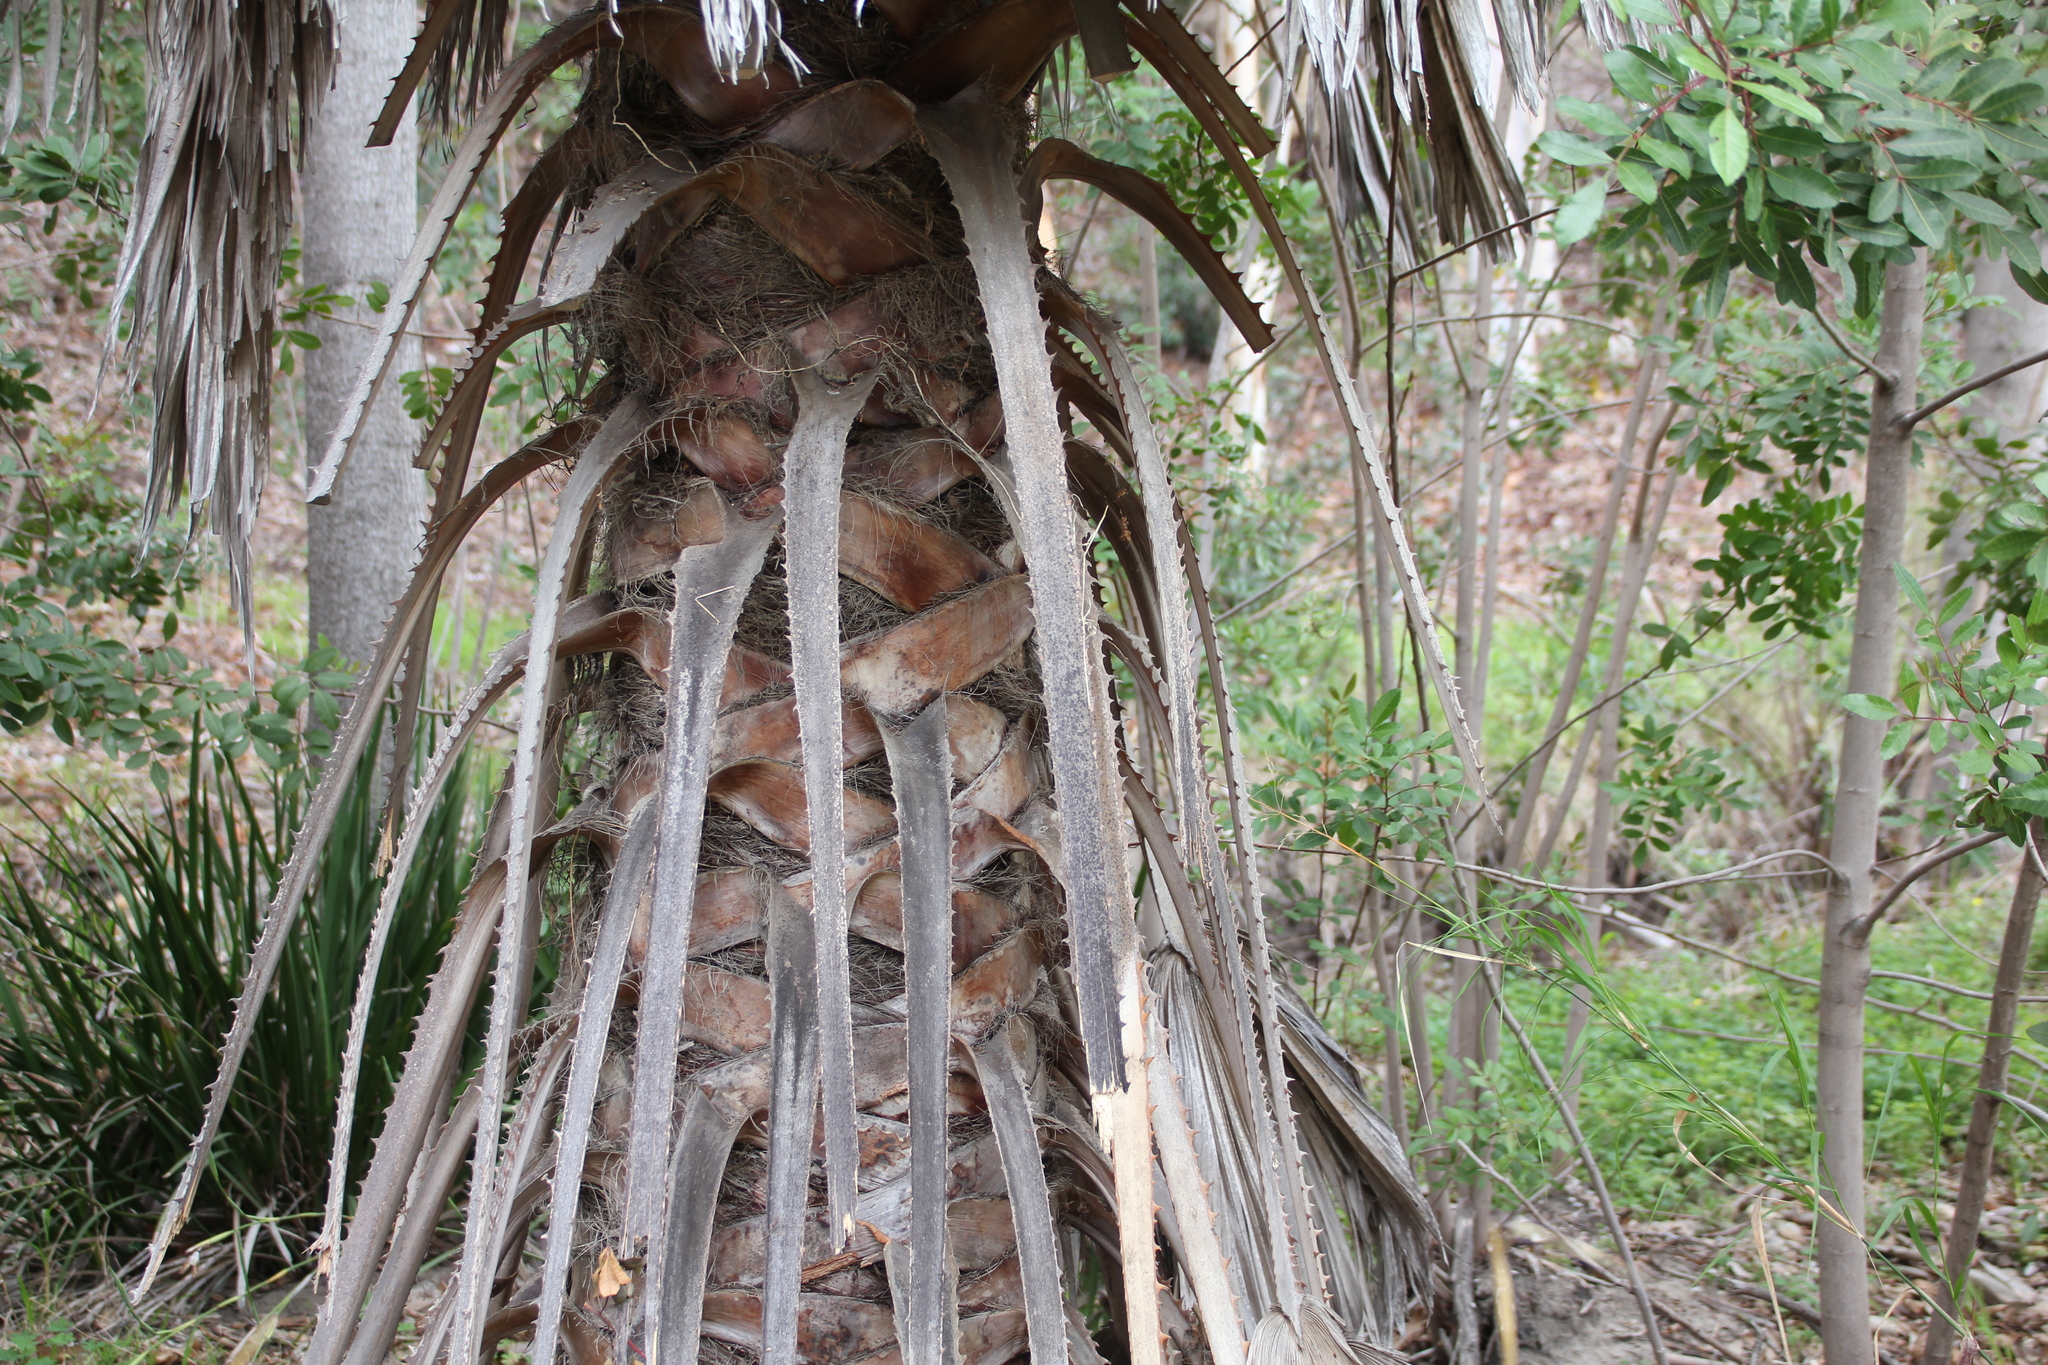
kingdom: Plantae
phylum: Tracheophyta
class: Liliopsida
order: Arecales
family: Arecaceae
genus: Washingtonia
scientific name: Washingtonia robusta
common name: Mexican fan palm
